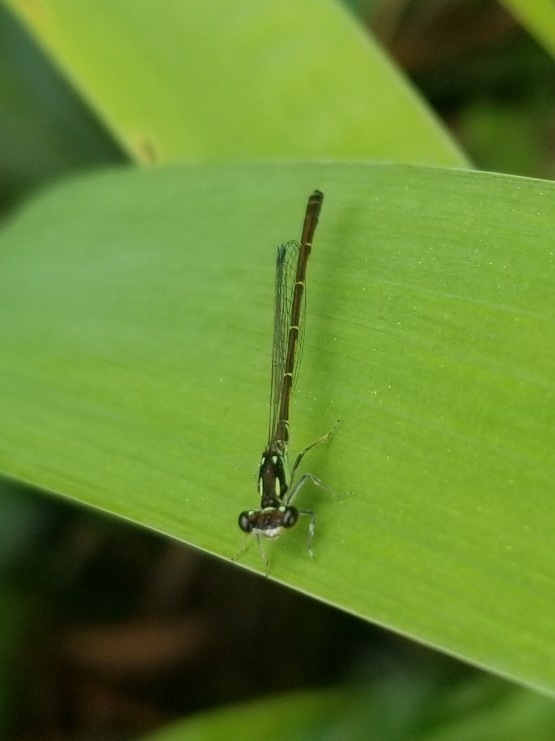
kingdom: Animalia
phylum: Arthropoda
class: Insecta
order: Odonata
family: Coenagrionidae
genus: Ischnura
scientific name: Ischnura posita
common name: Fragile forktail
